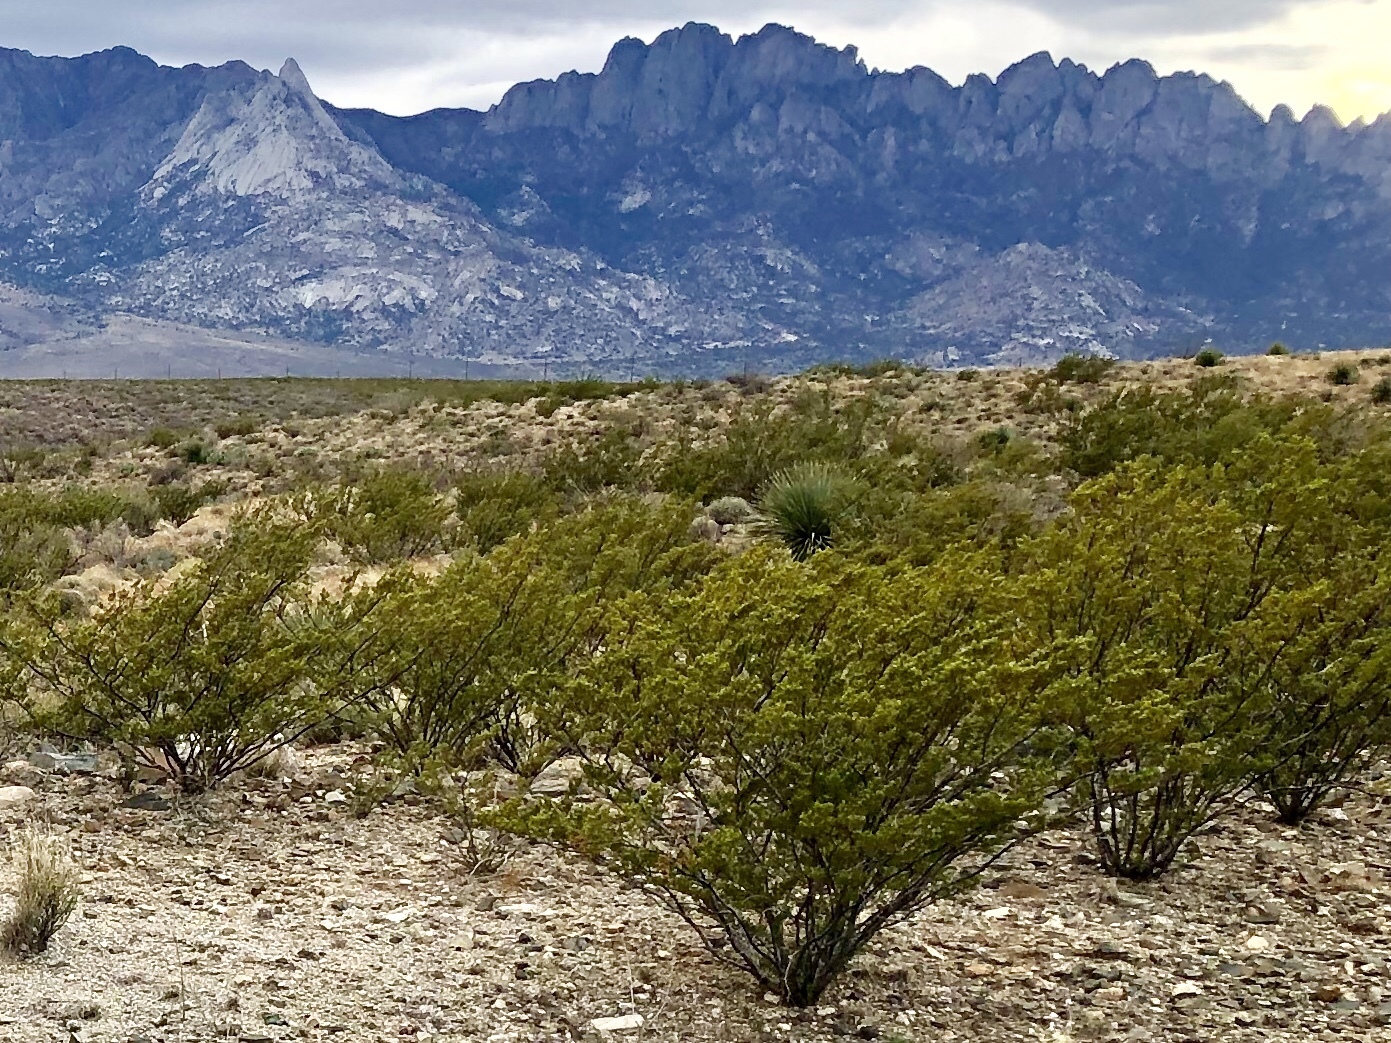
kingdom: Plantae
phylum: Tracheophyta
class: Magnoliopsida
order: Zygophyllales
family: Zygophyllaceae
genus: Larrea
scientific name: Larrea tridentata
